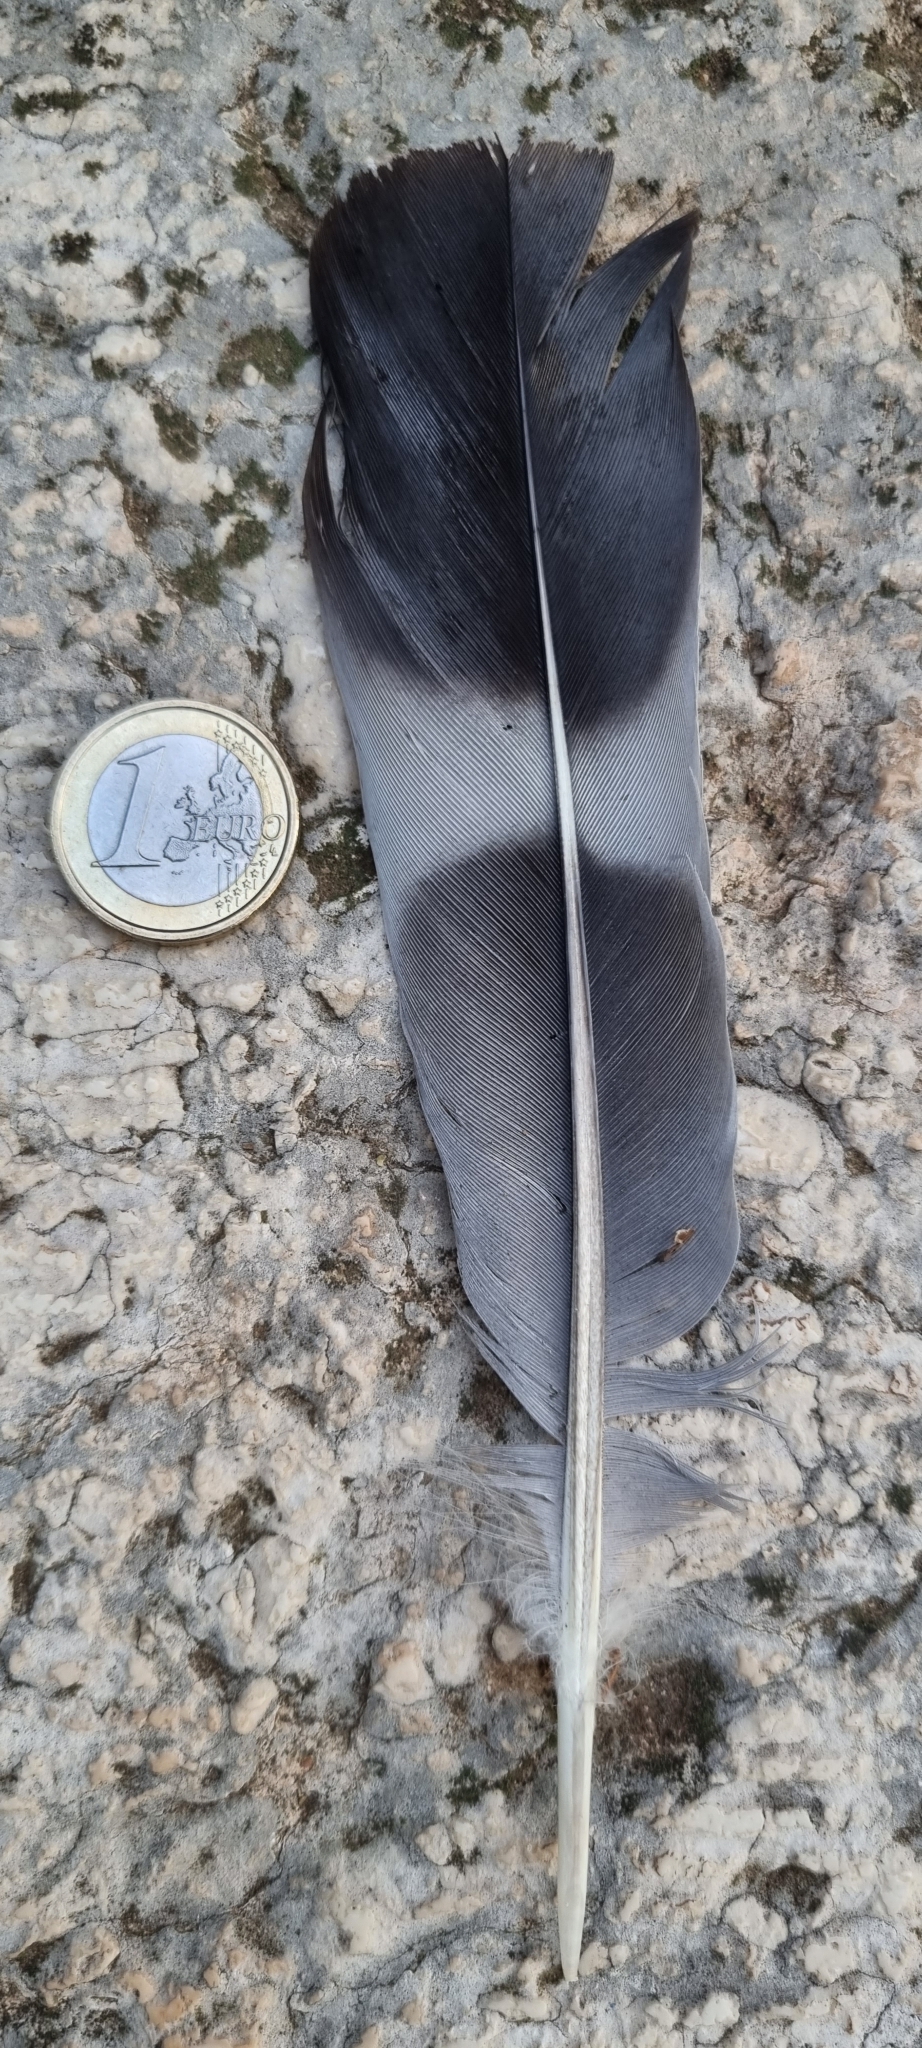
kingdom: Animalia
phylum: Chordata
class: Aves
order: Columbiformes
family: Columbidae
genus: Columba
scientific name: Columba palumbus
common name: Common wood pigeon
